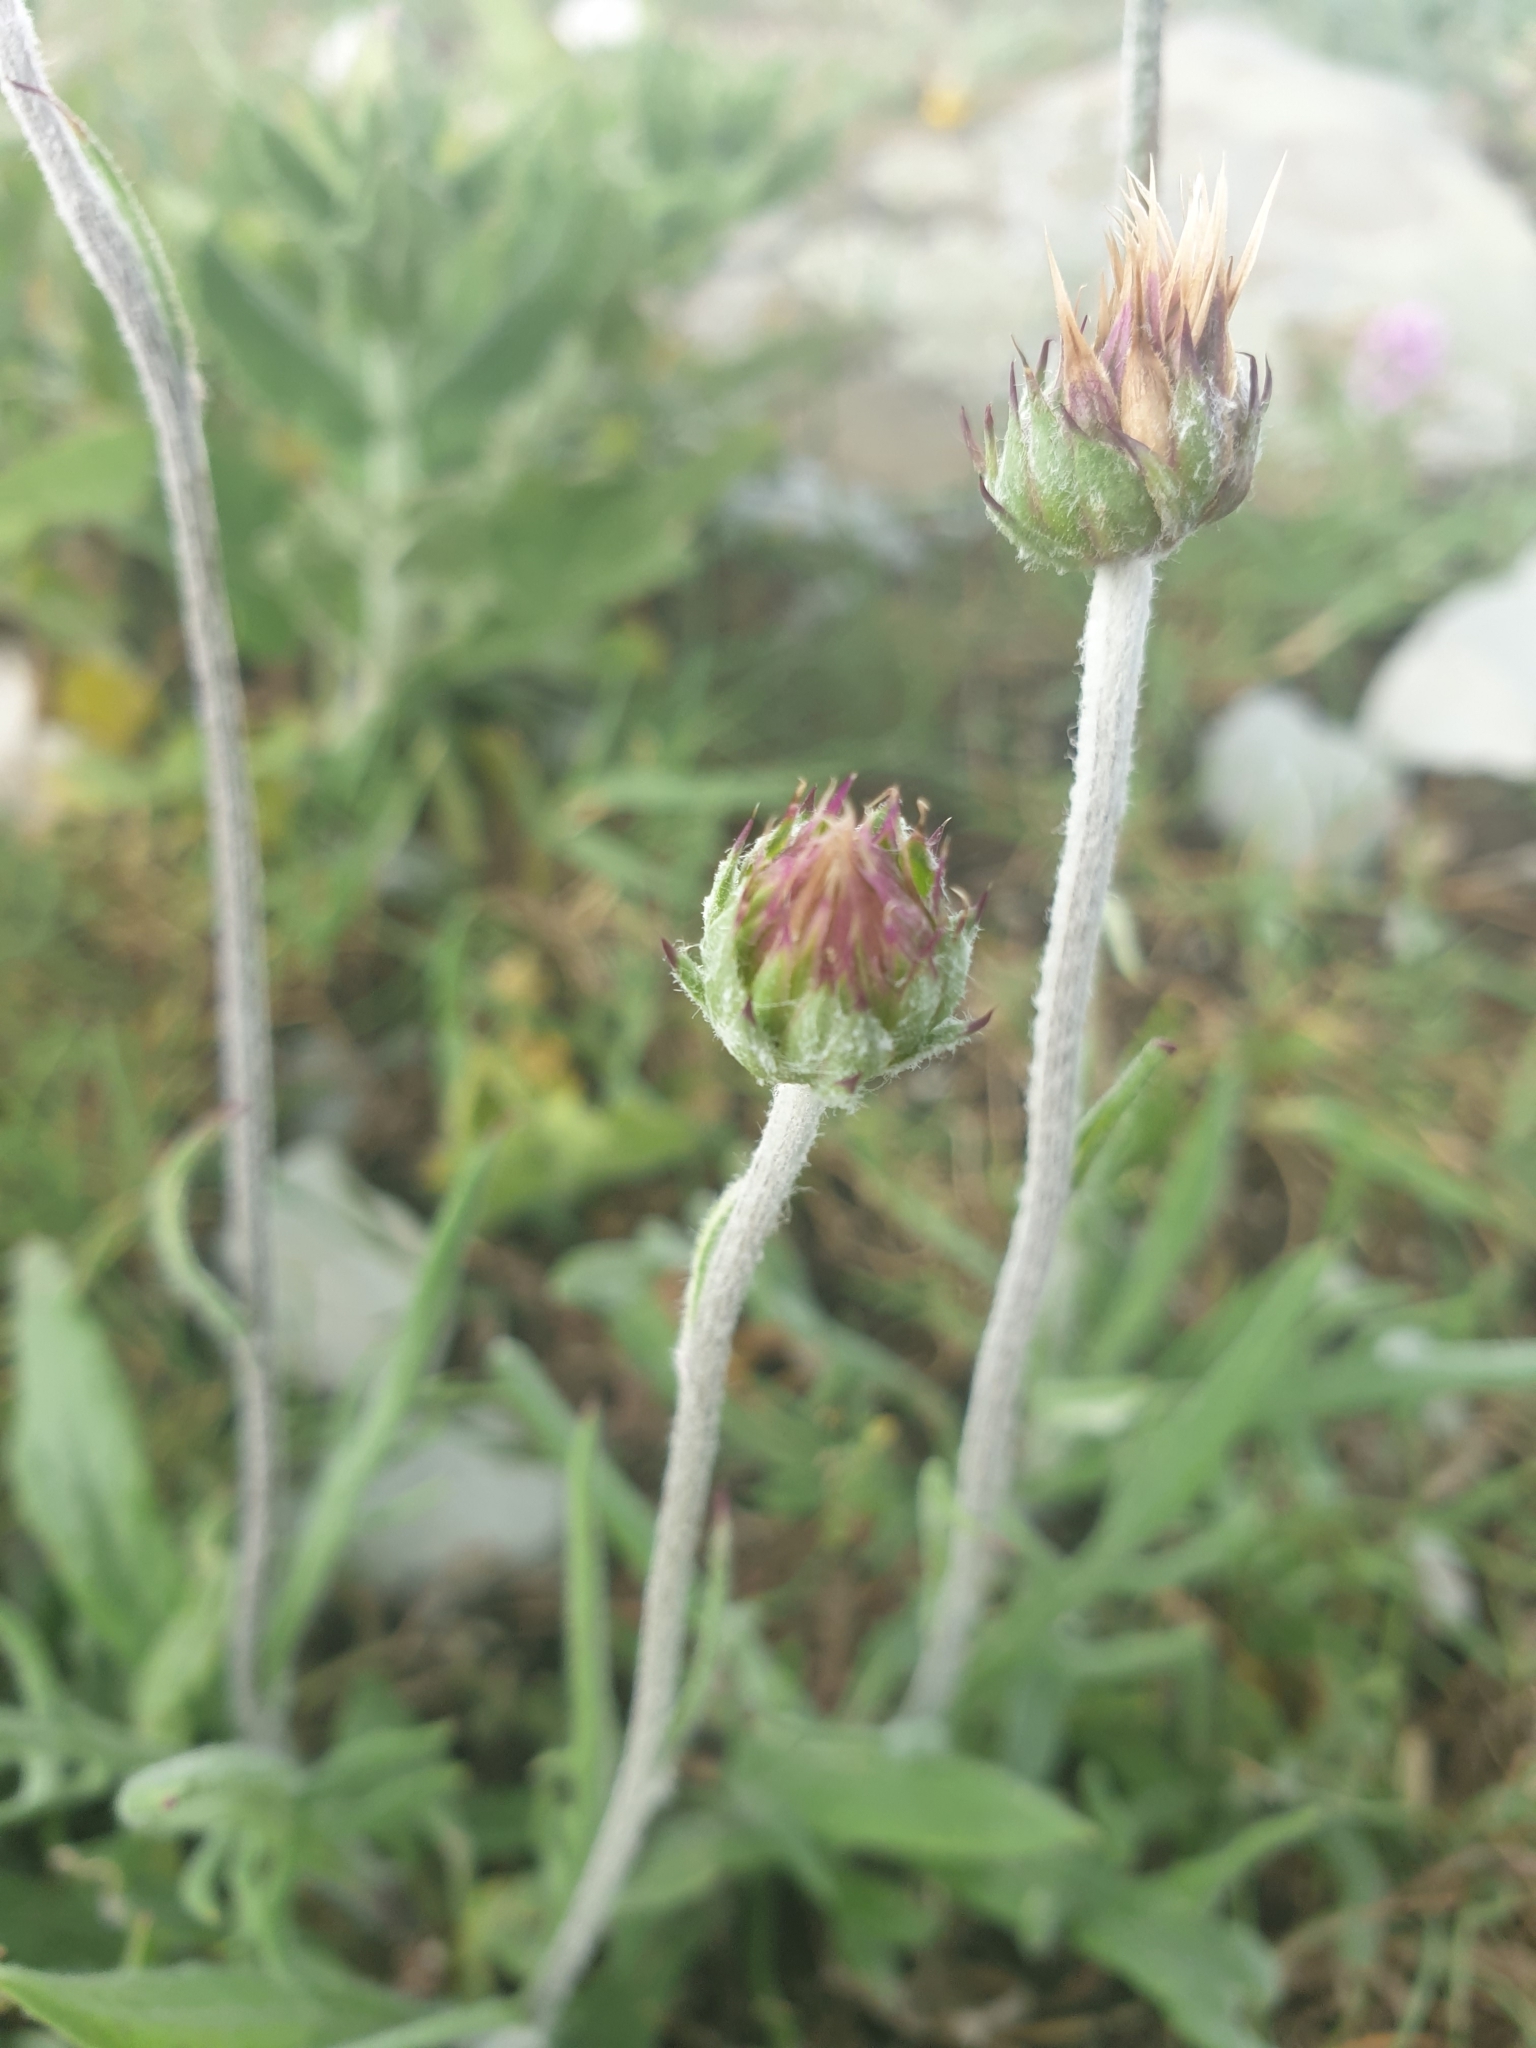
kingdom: Plantae
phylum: Tracheophyta
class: Magnoliopsida
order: Asterales
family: Asteraceae
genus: Jurinea
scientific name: Jurinea arachnoidea
